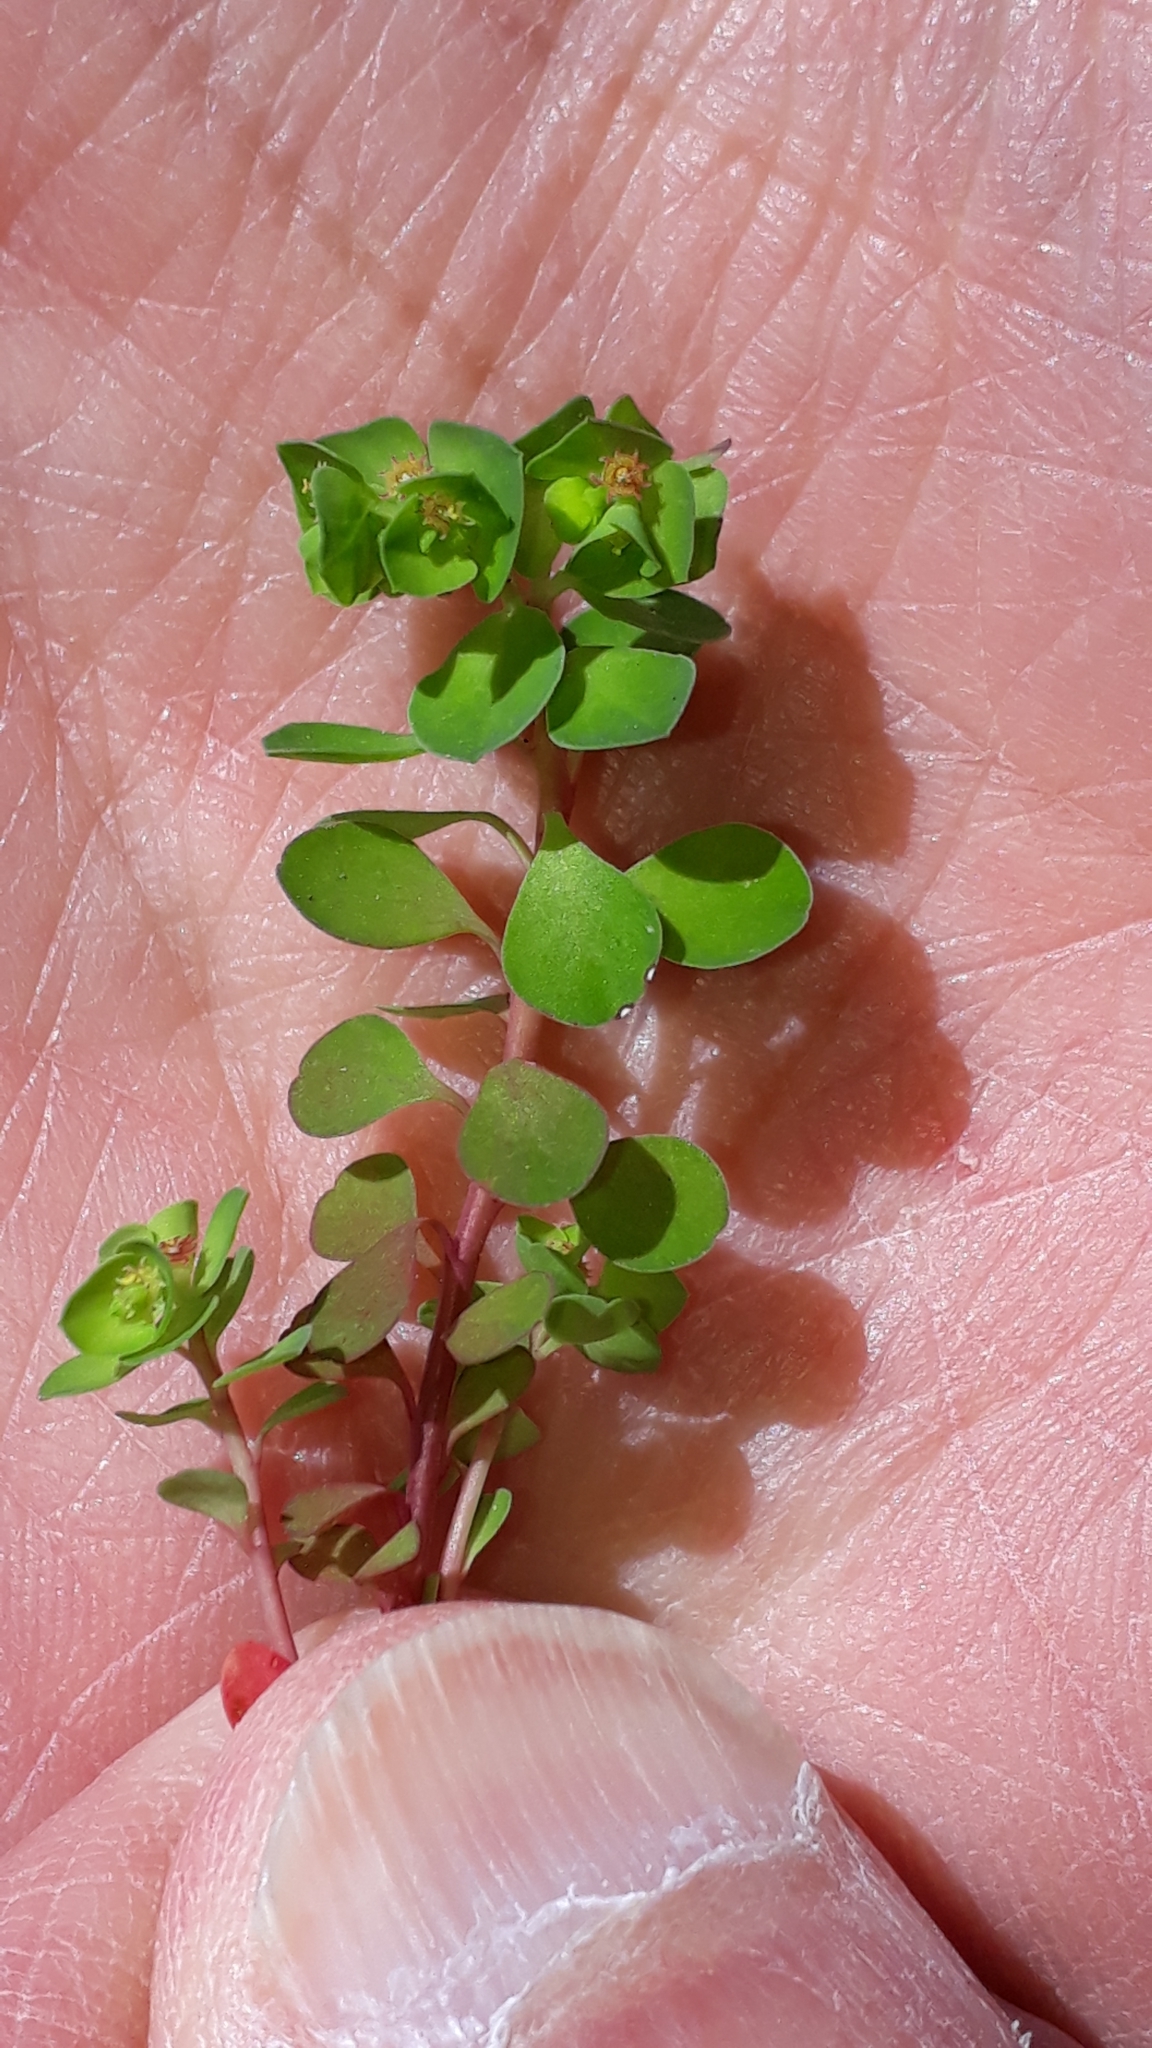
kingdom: Plantae
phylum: Tracheophyta
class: Magnoliopsida
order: Malpighiales
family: Euphorbiaceae
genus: Euphorbia
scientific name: Euphorbia peplus
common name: Petty spurge
